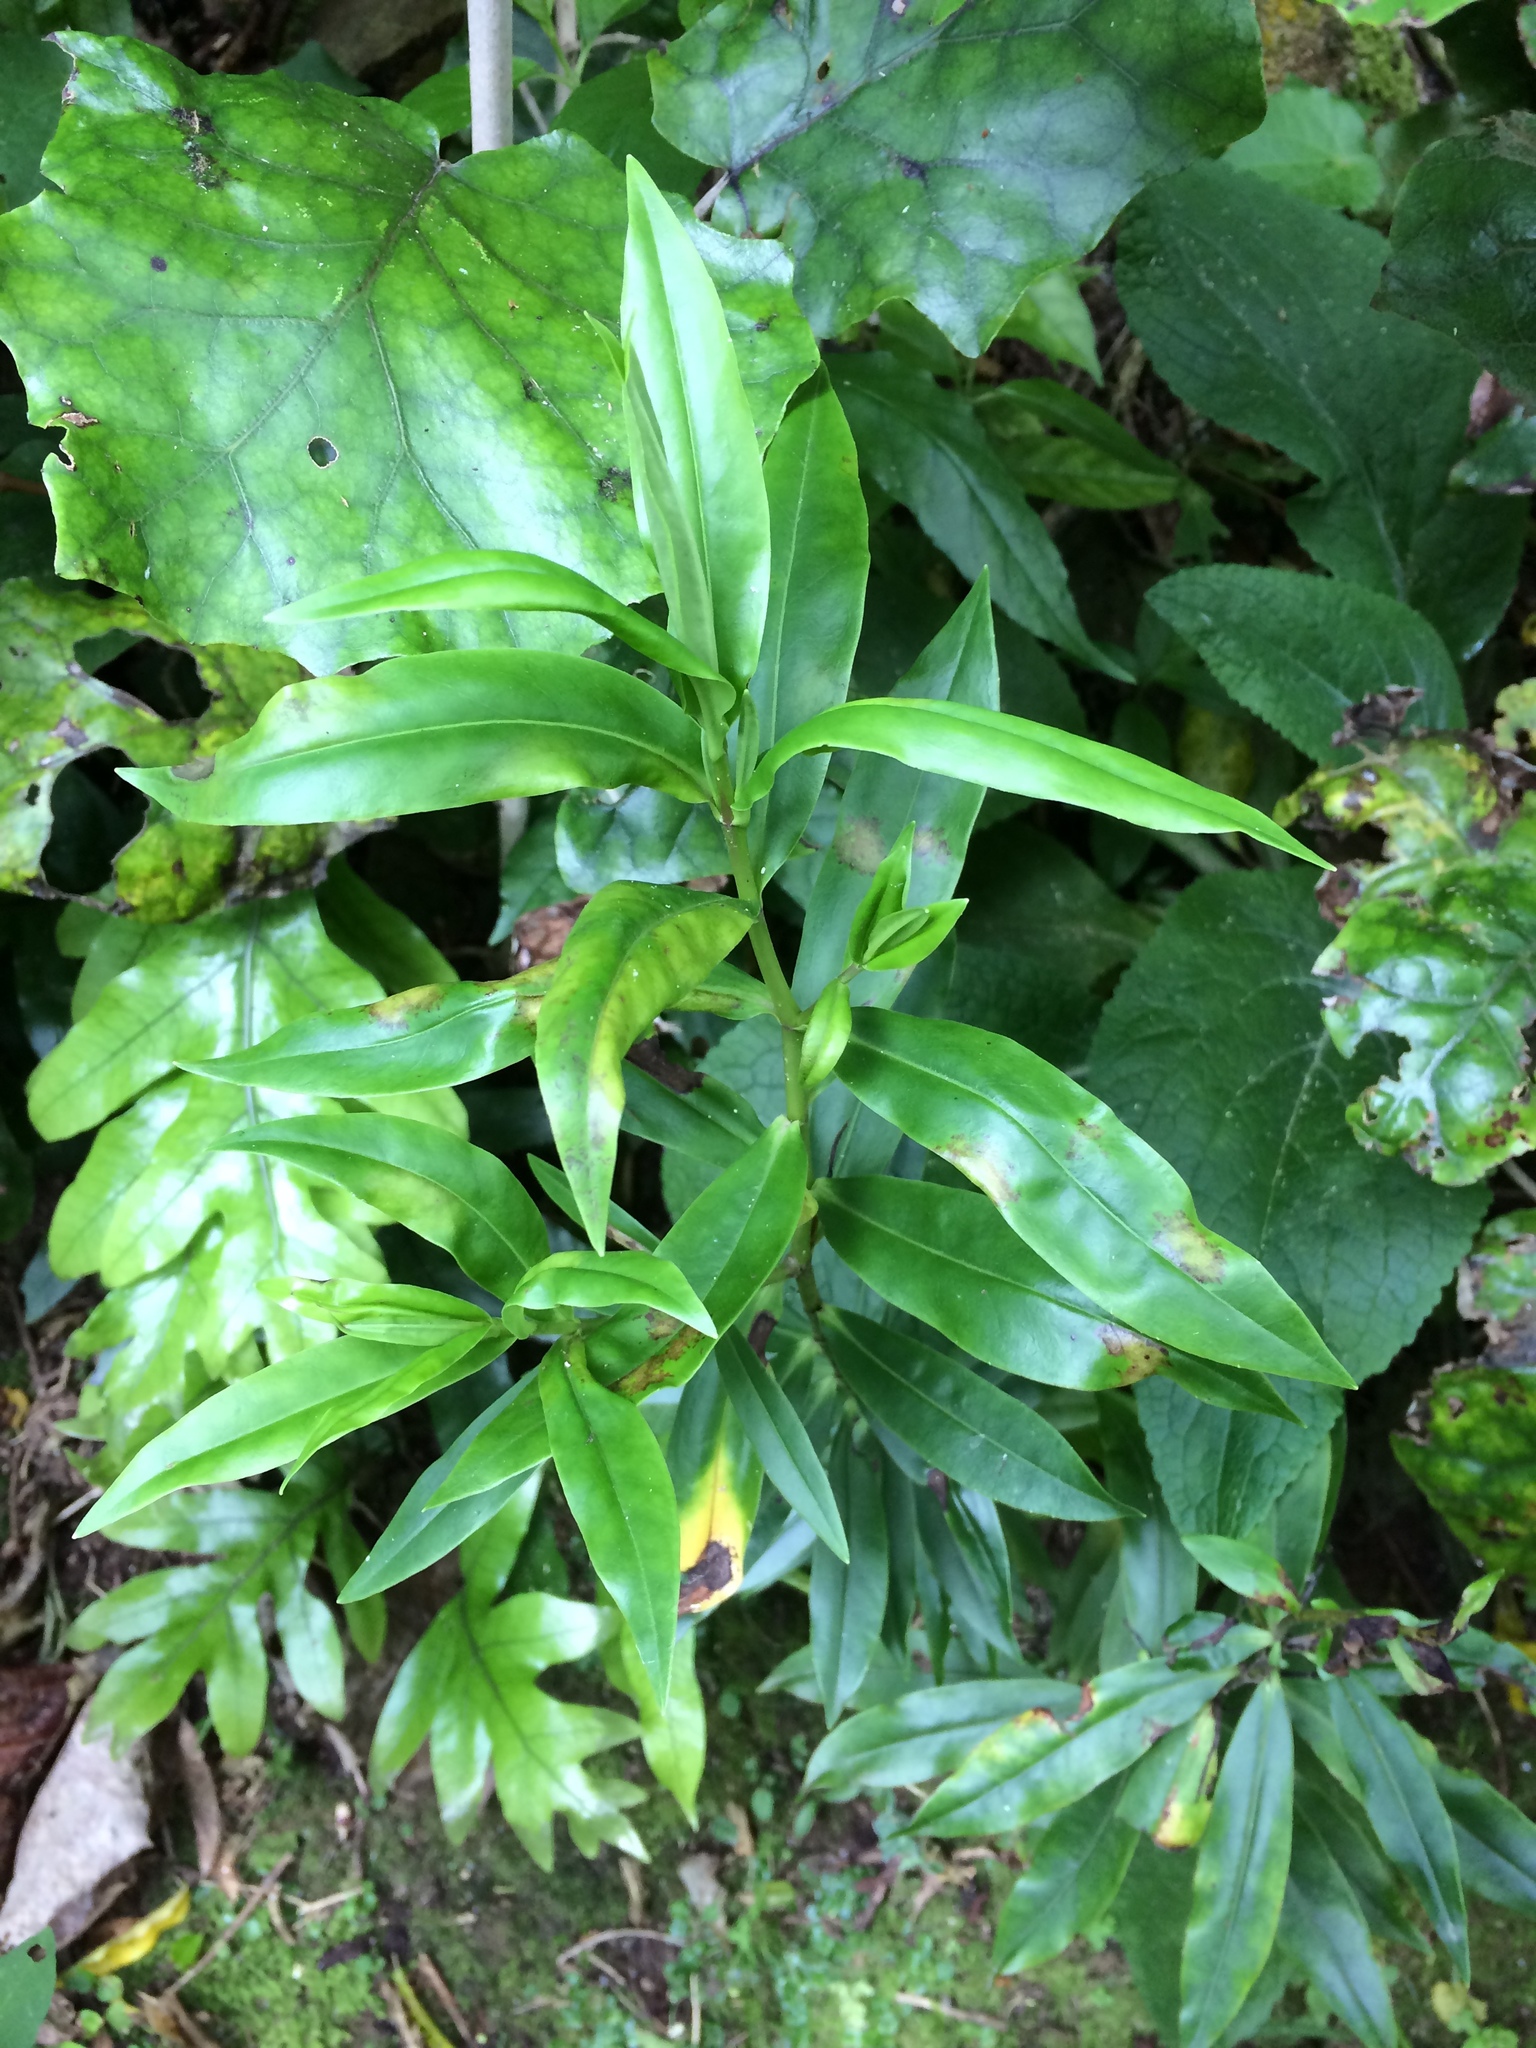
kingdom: Plantae
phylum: Tracheophyta
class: Magnoliopsida
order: Lamiales
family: Plantaginaceae
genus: Veronica
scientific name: Veronica stricta
